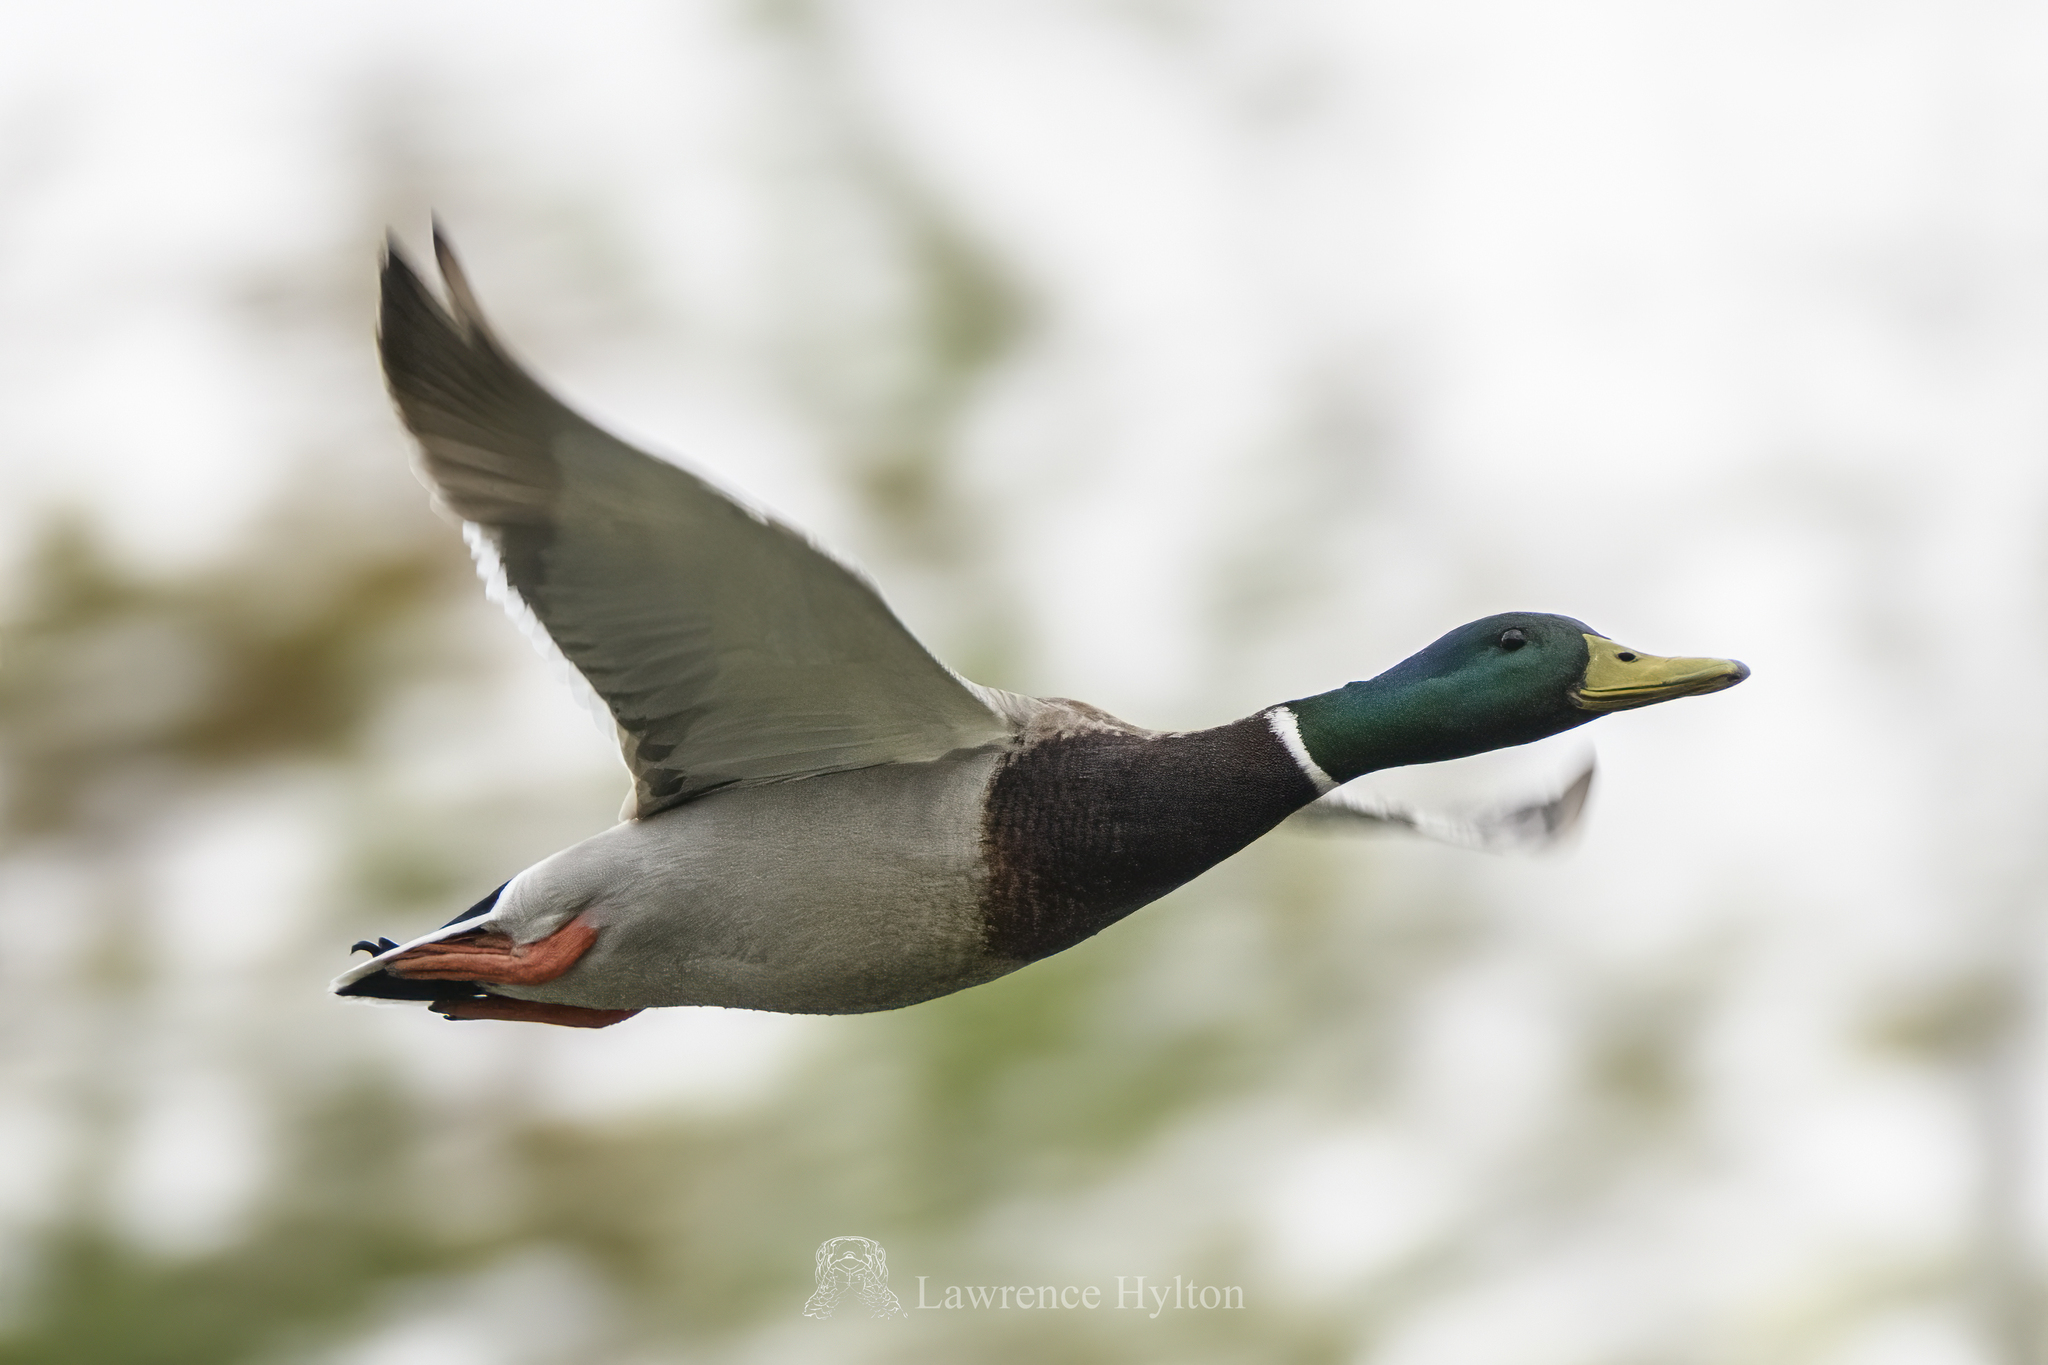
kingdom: Animalia
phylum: Chordata
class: Aves
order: Anseriformes
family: Anatidae
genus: Anas
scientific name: Anas platyrhynchos
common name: Mallard
